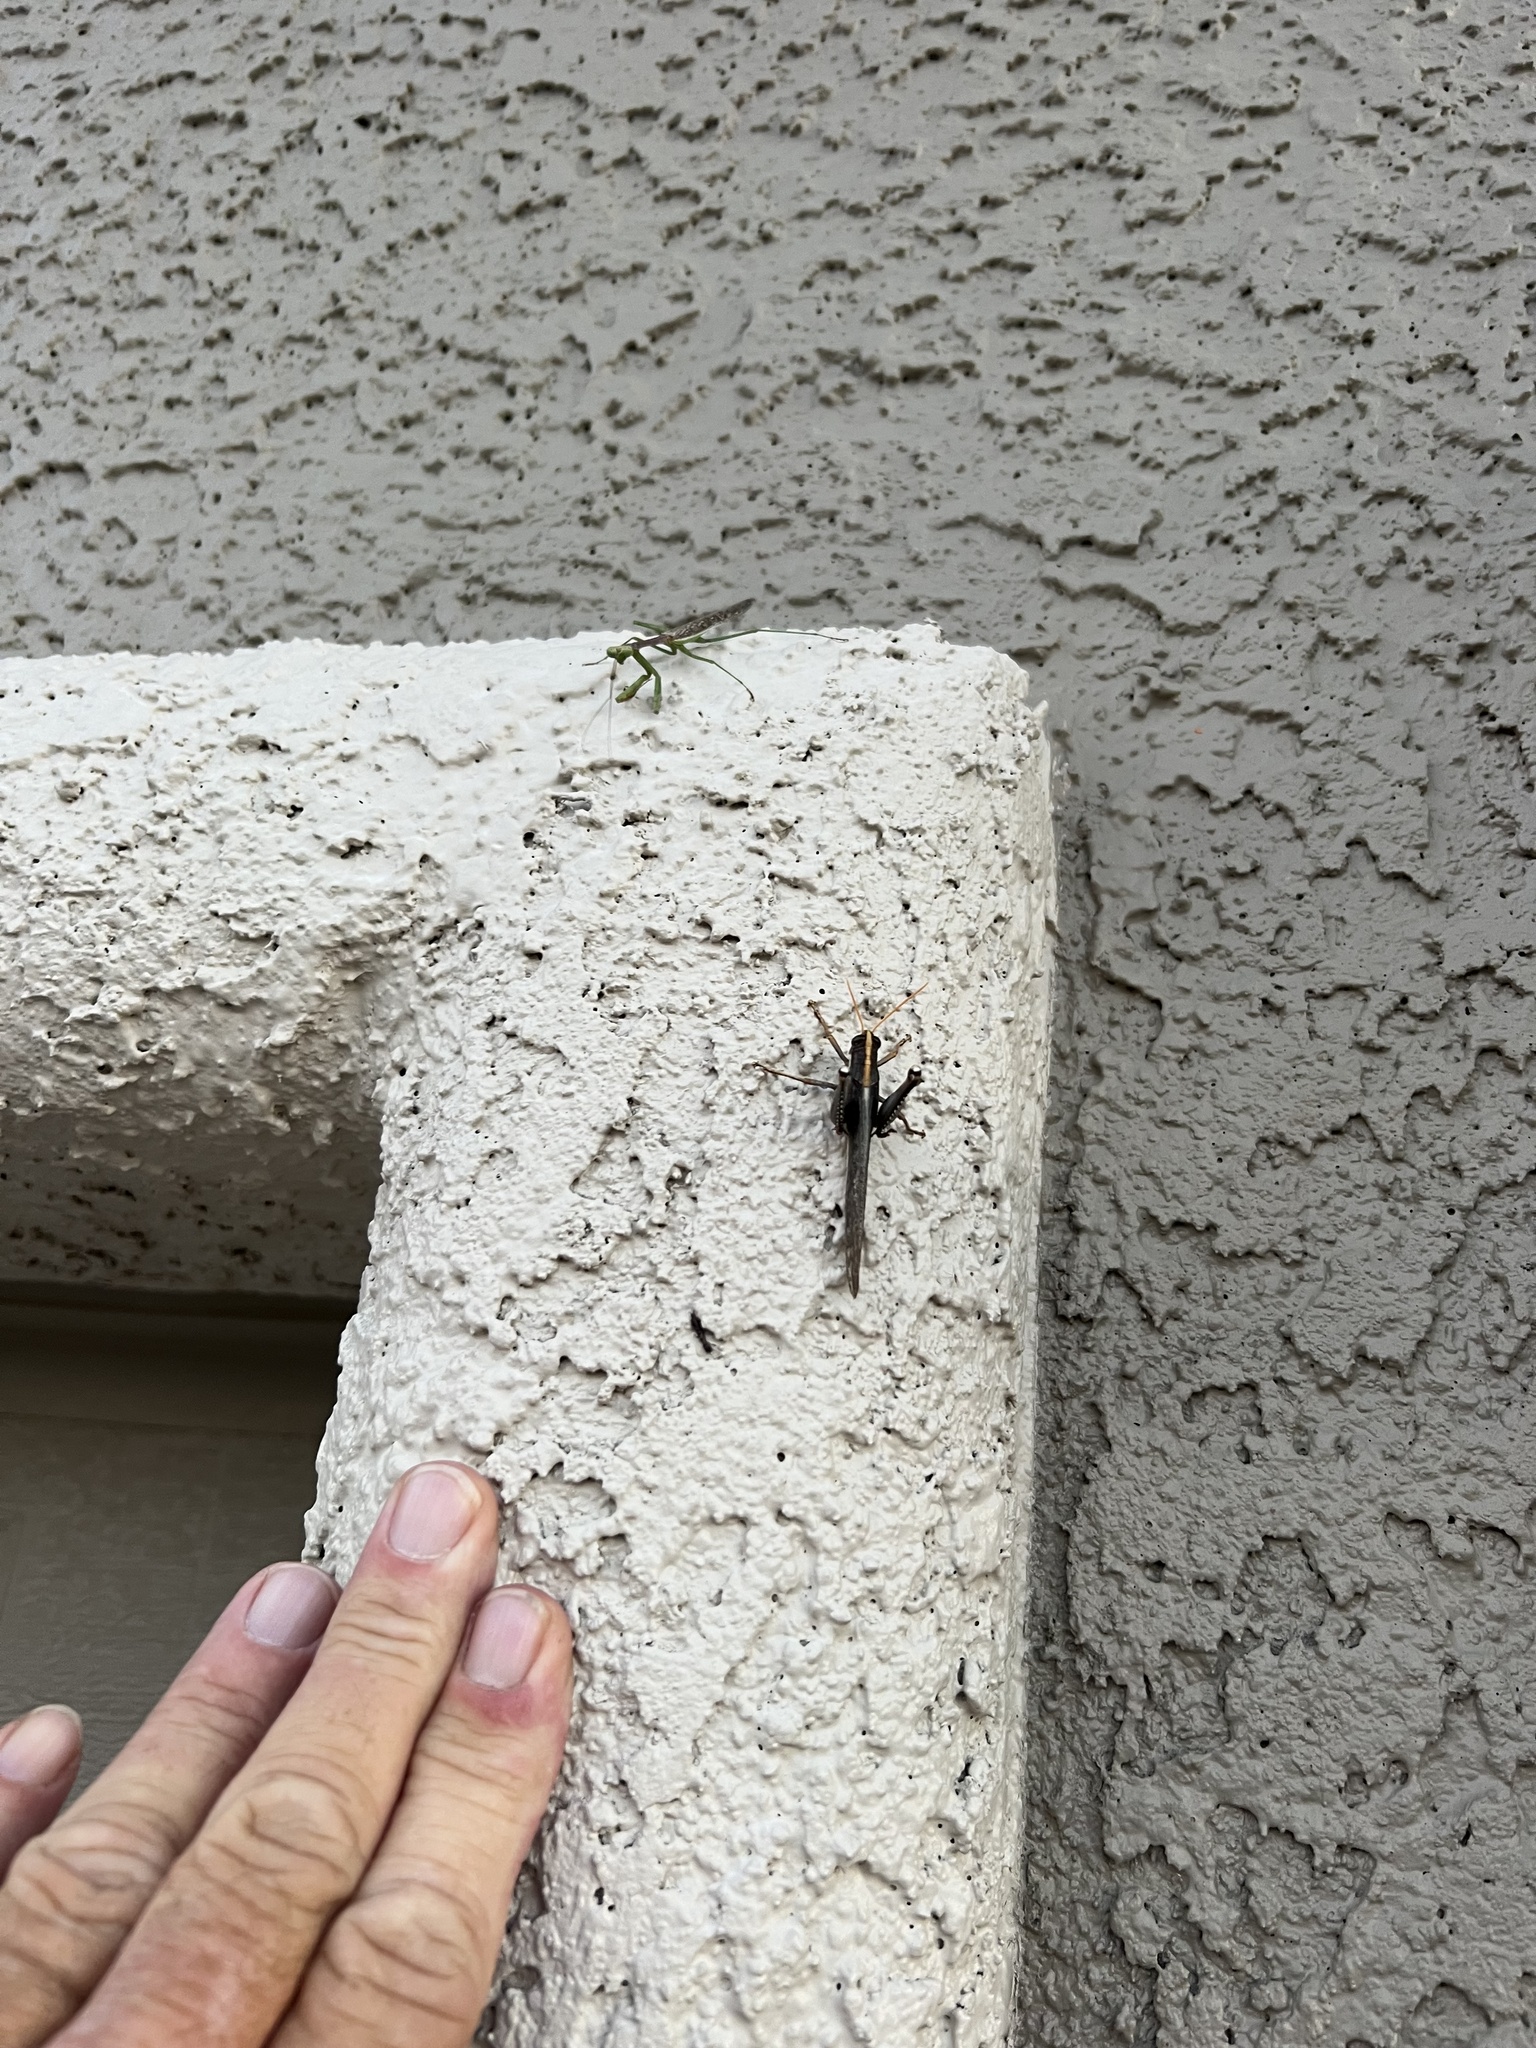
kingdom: Animalia
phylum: Arthropoda
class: Insecta
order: Mantodea
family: Mantidae
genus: Stagmomantis
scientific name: Stagmomantis californica
